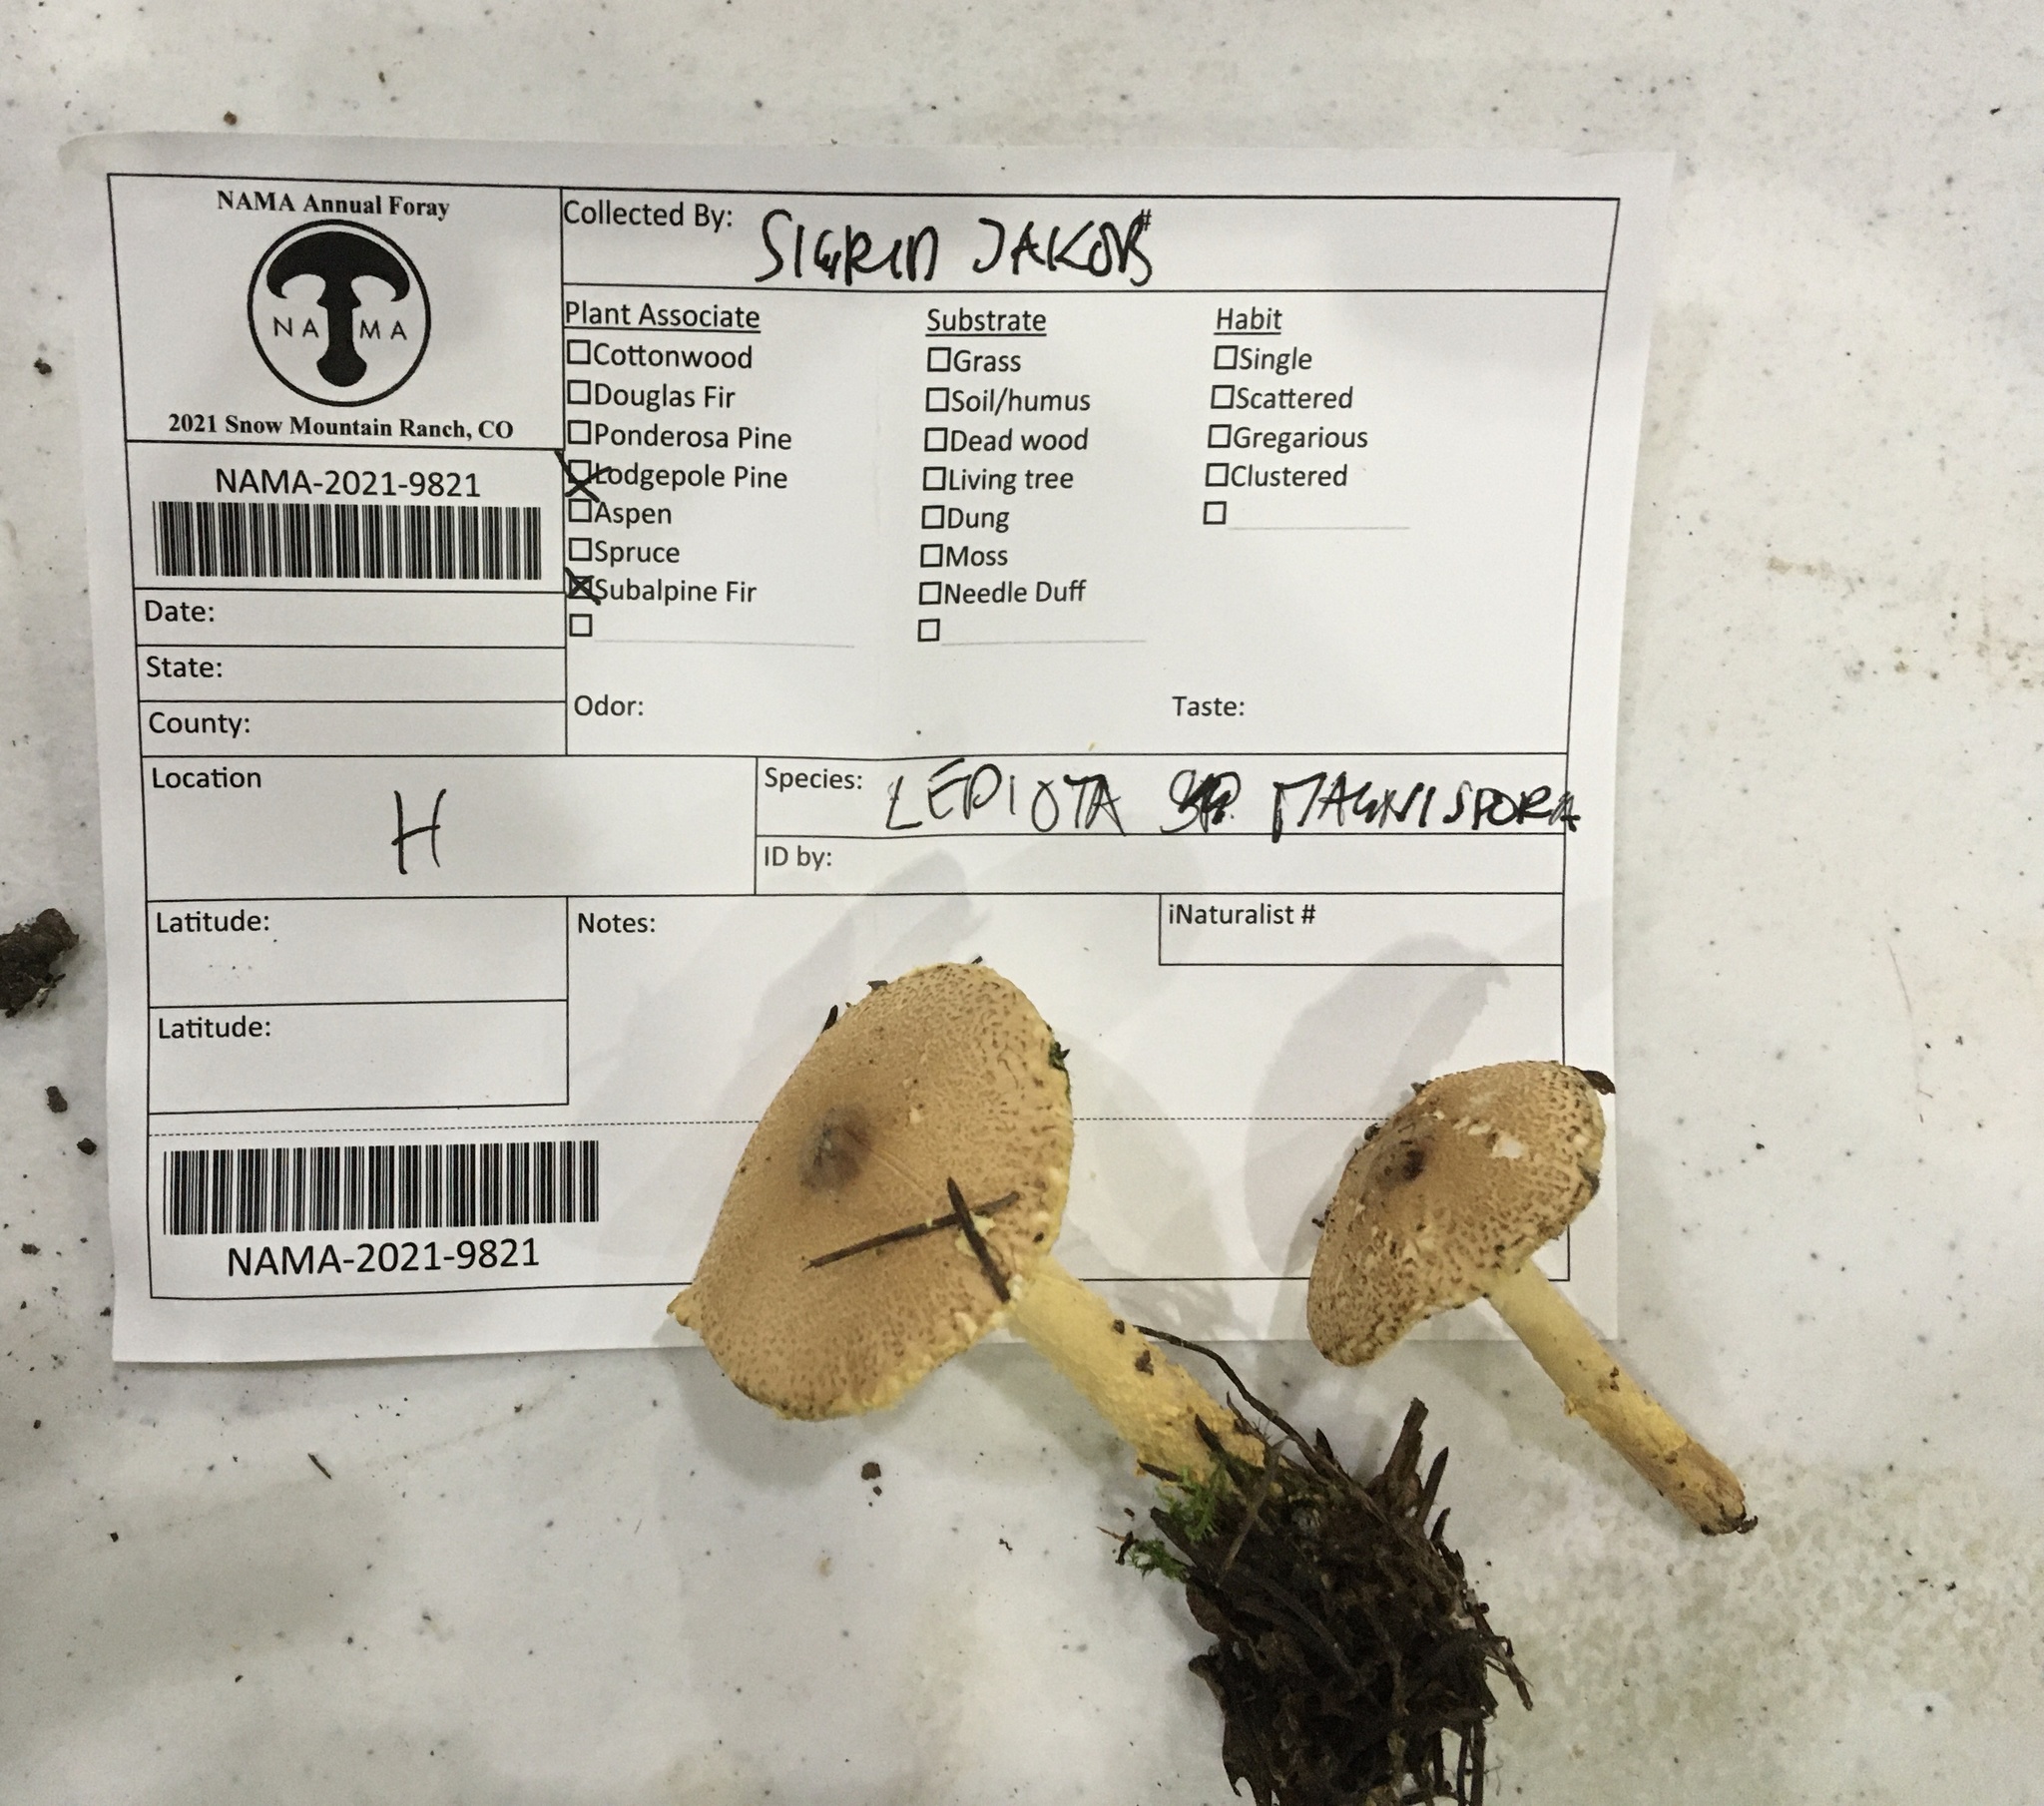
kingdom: Fungi
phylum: Basidiomycota
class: Agaricomycetes
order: Agaricales
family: Agaricaceae
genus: Lepiota
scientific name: Lepiota magnispora
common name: Yellowfoot dapperling
